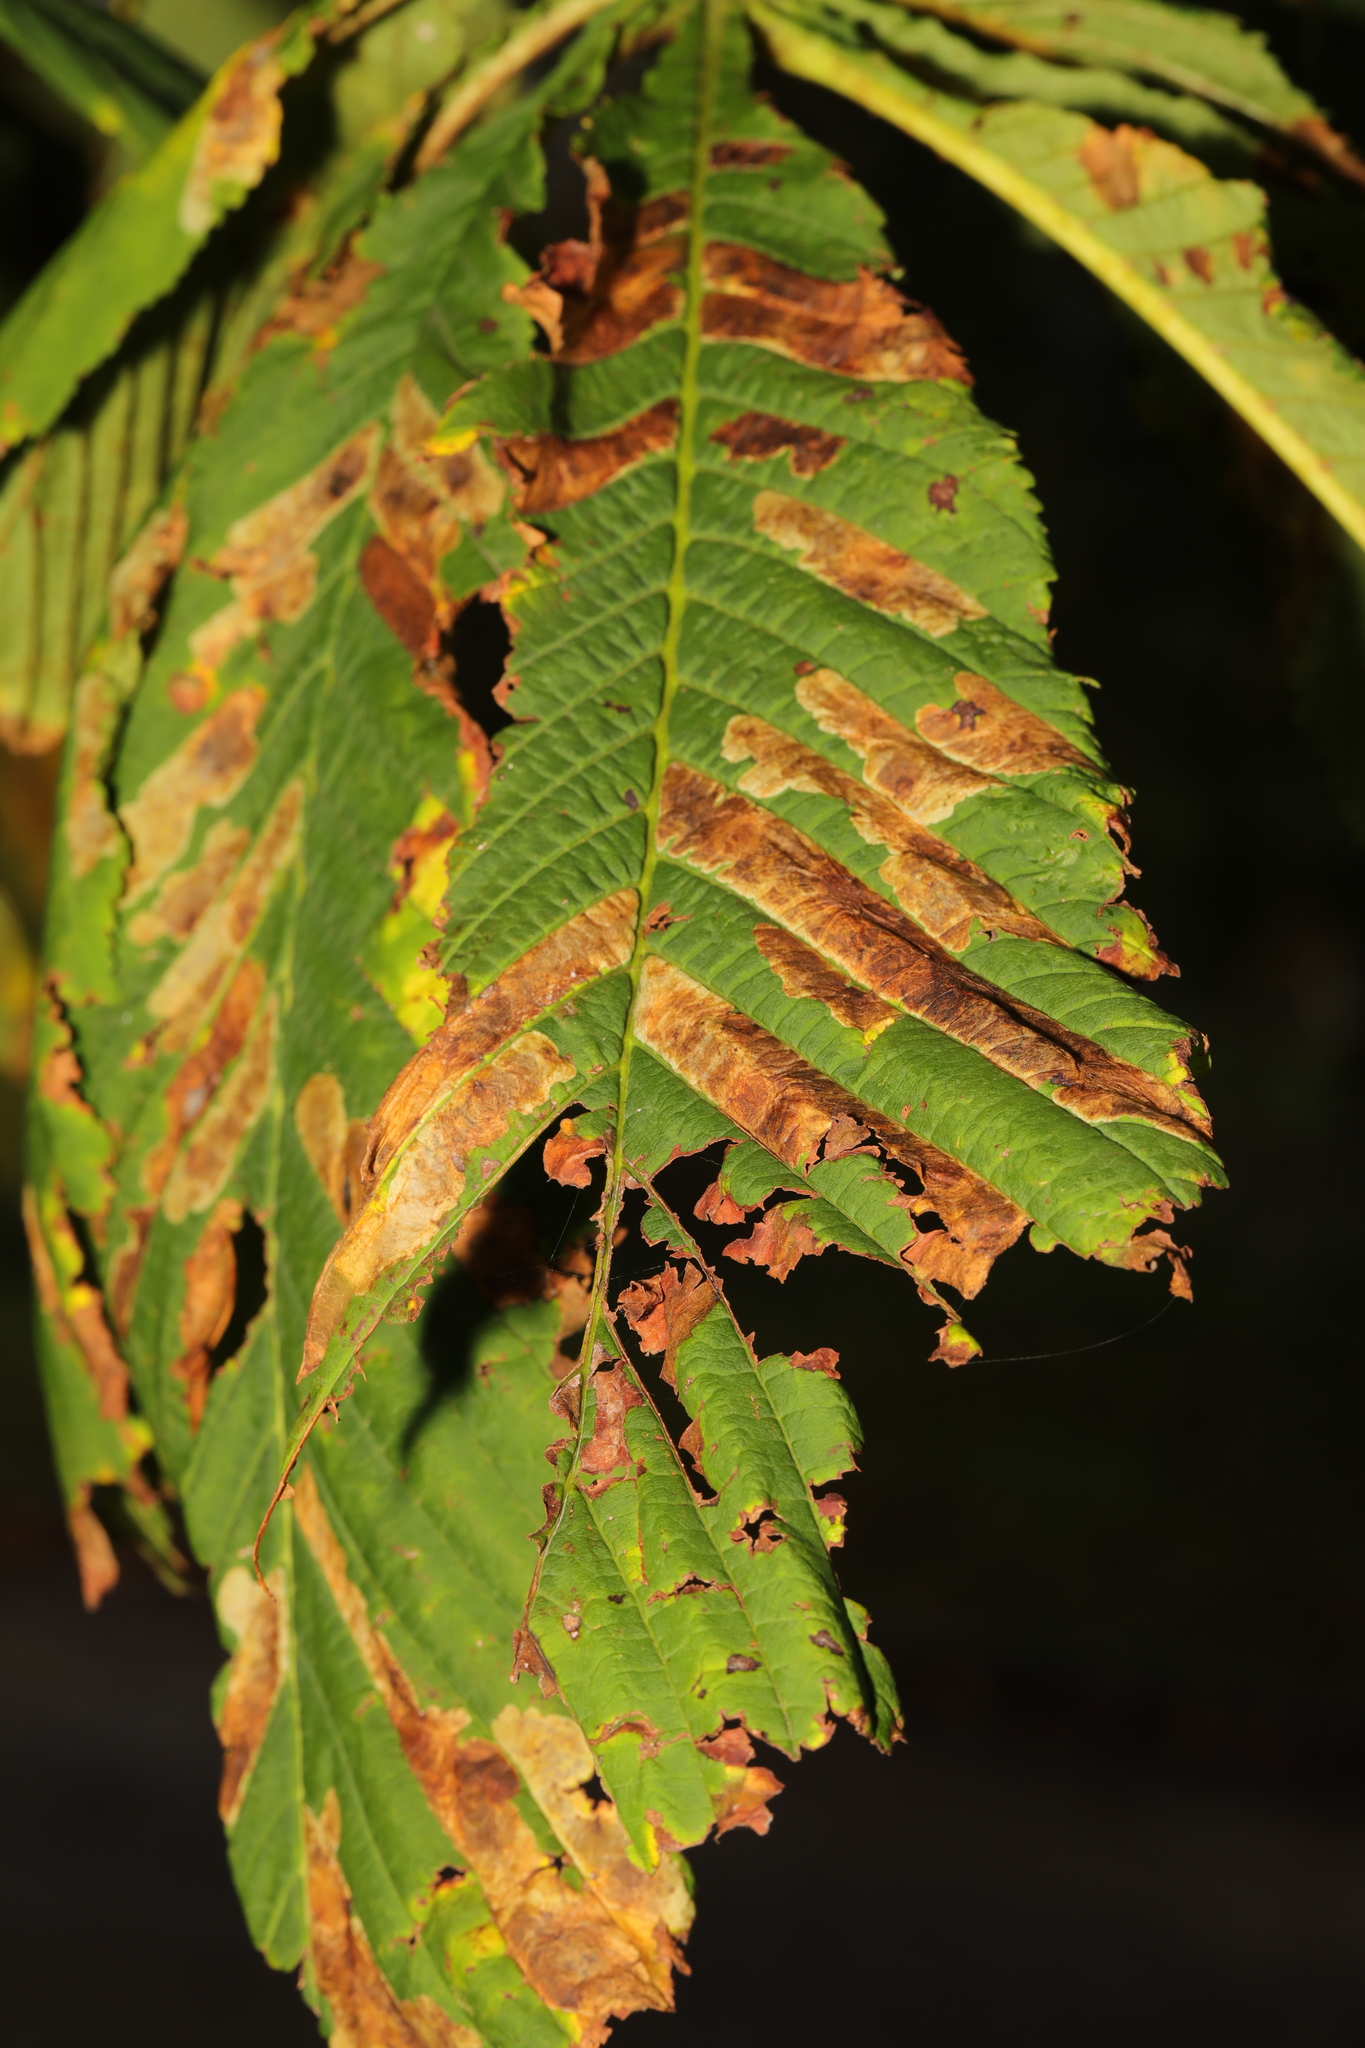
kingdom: Animalia
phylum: Arthropoda
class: Insecta
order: Lepidoptera
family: Gracillariidae
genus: Cameraria
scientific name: Cameraria ohridella
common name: Horse-chestnut leaf-miner
